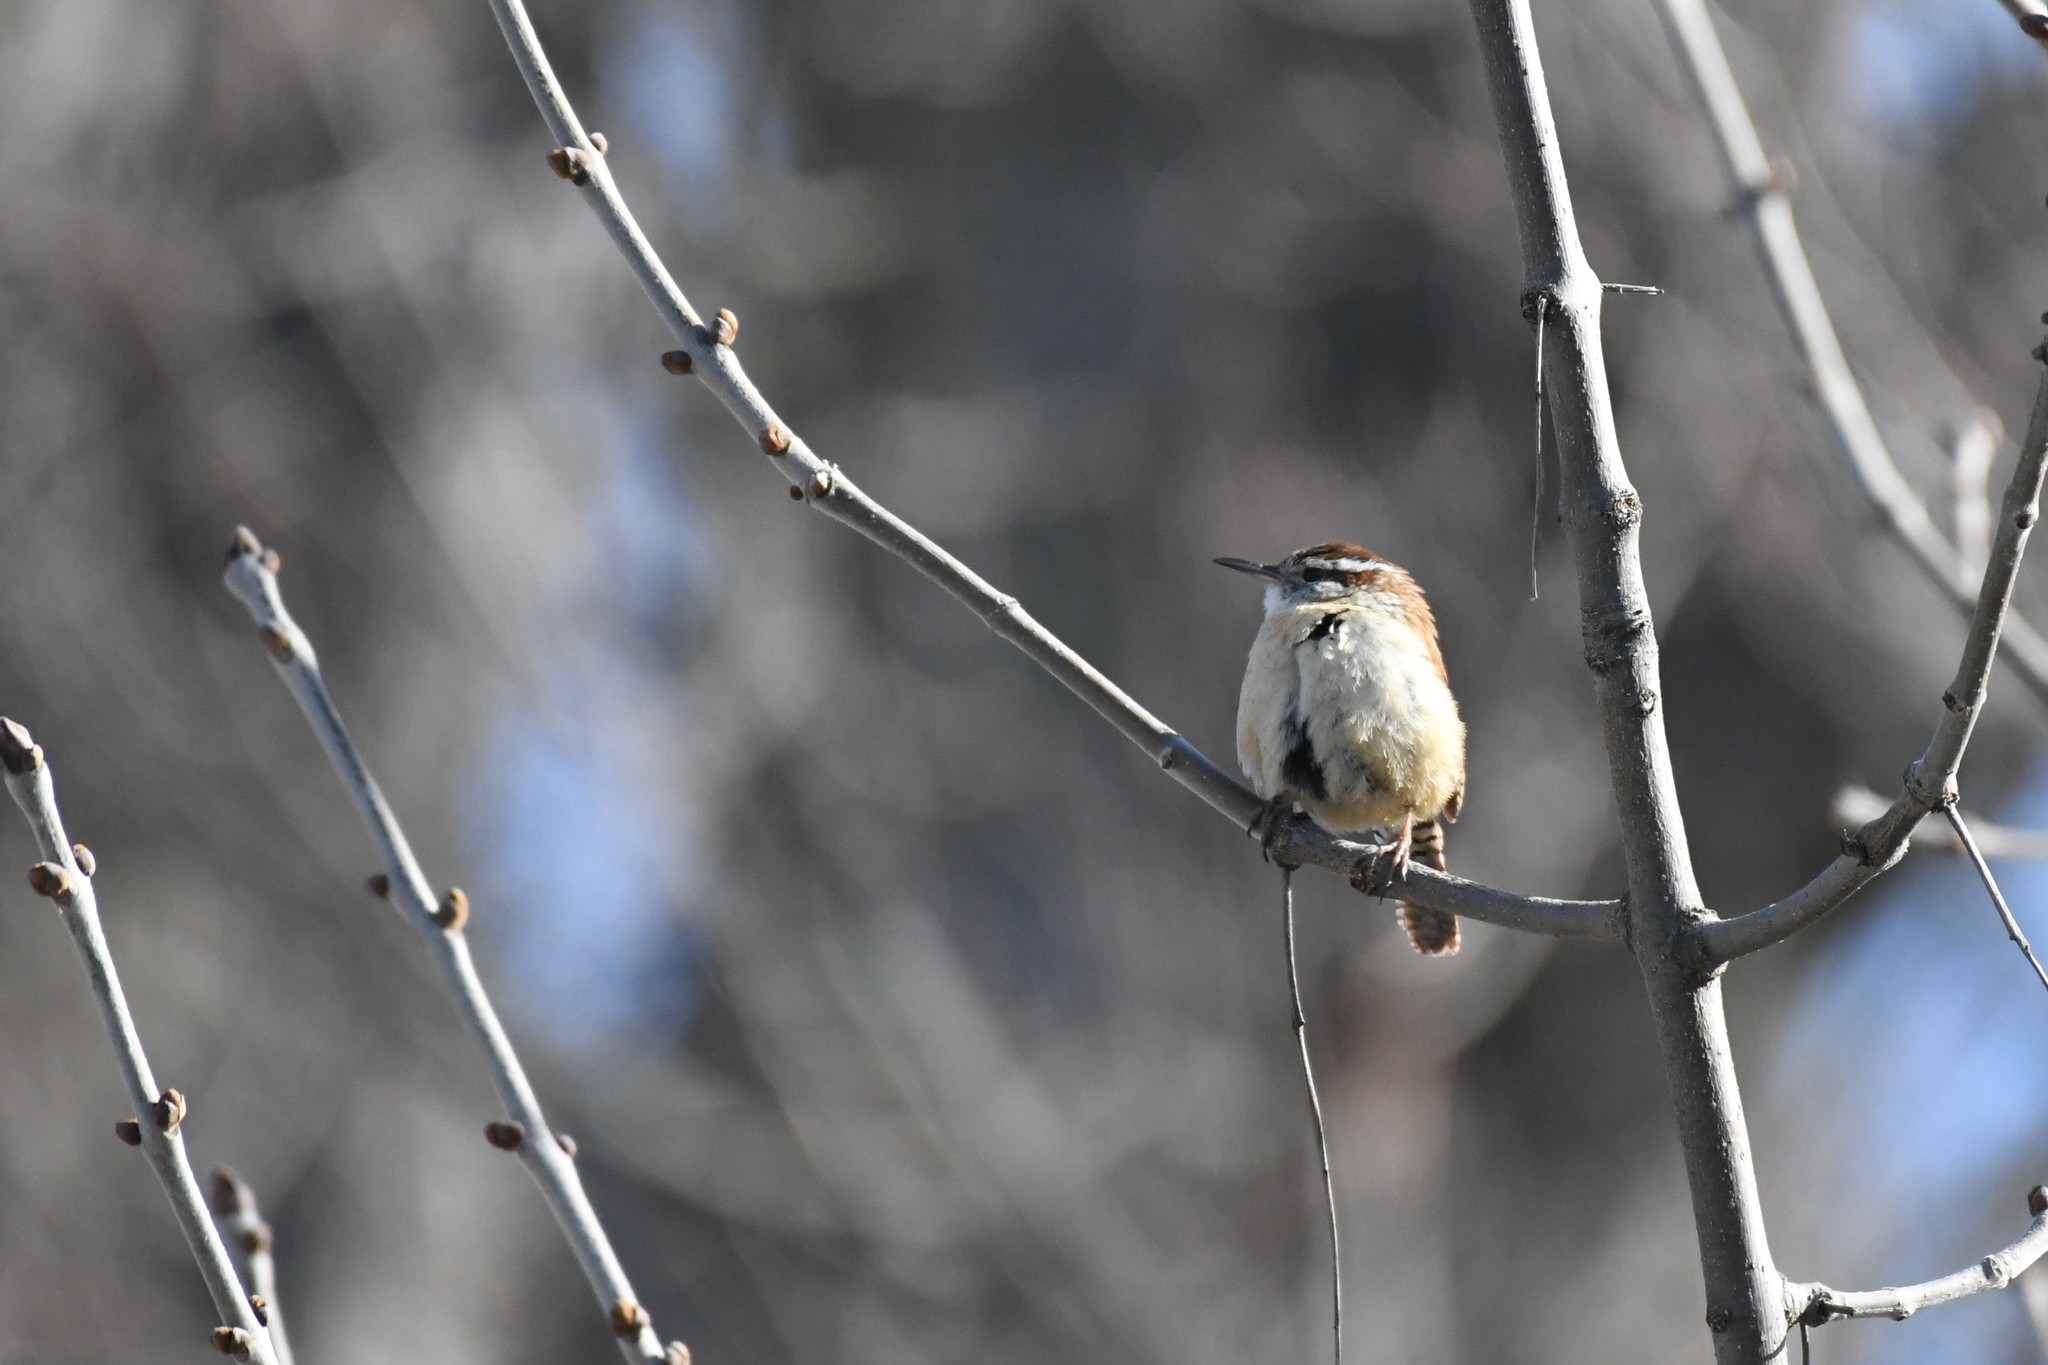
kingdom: Animalia
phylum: Chordata
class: Aves
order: Passeriformes
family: Troglodytidae
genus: Thryothorus
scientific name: Thryothorus ludovicianus
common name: Carolina wren
